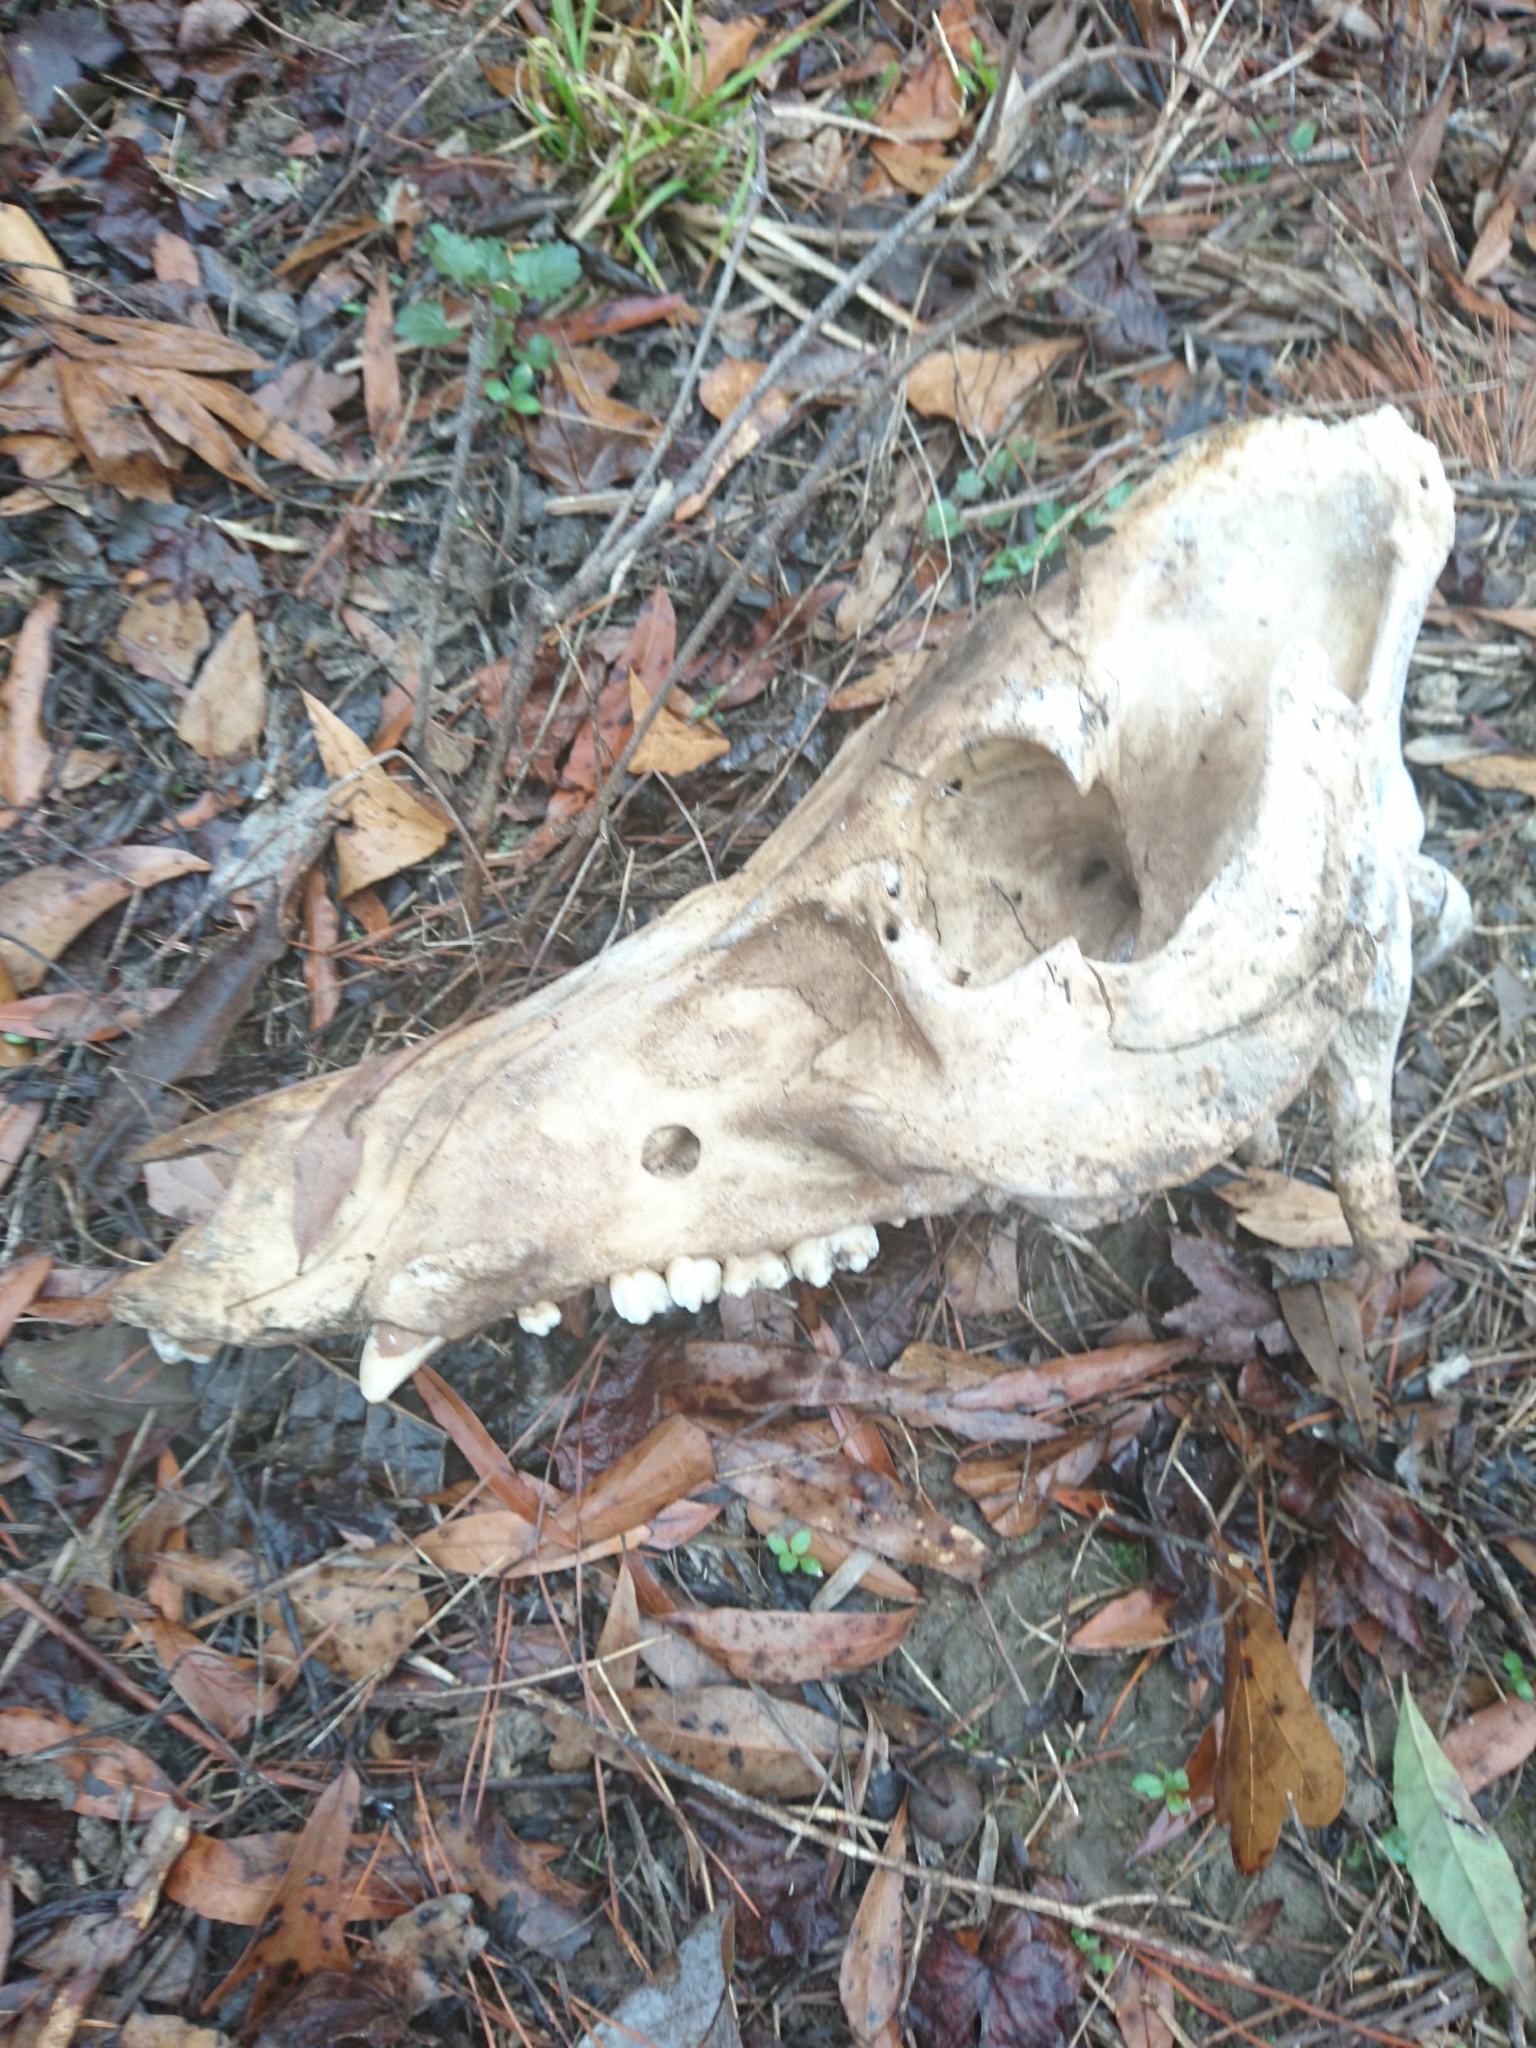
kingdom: Animalia
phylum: Chordata
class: Mammalia
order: Artiodactyla
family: Suidae
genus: Sus
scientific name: Sus scrofa
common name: Wild boar
